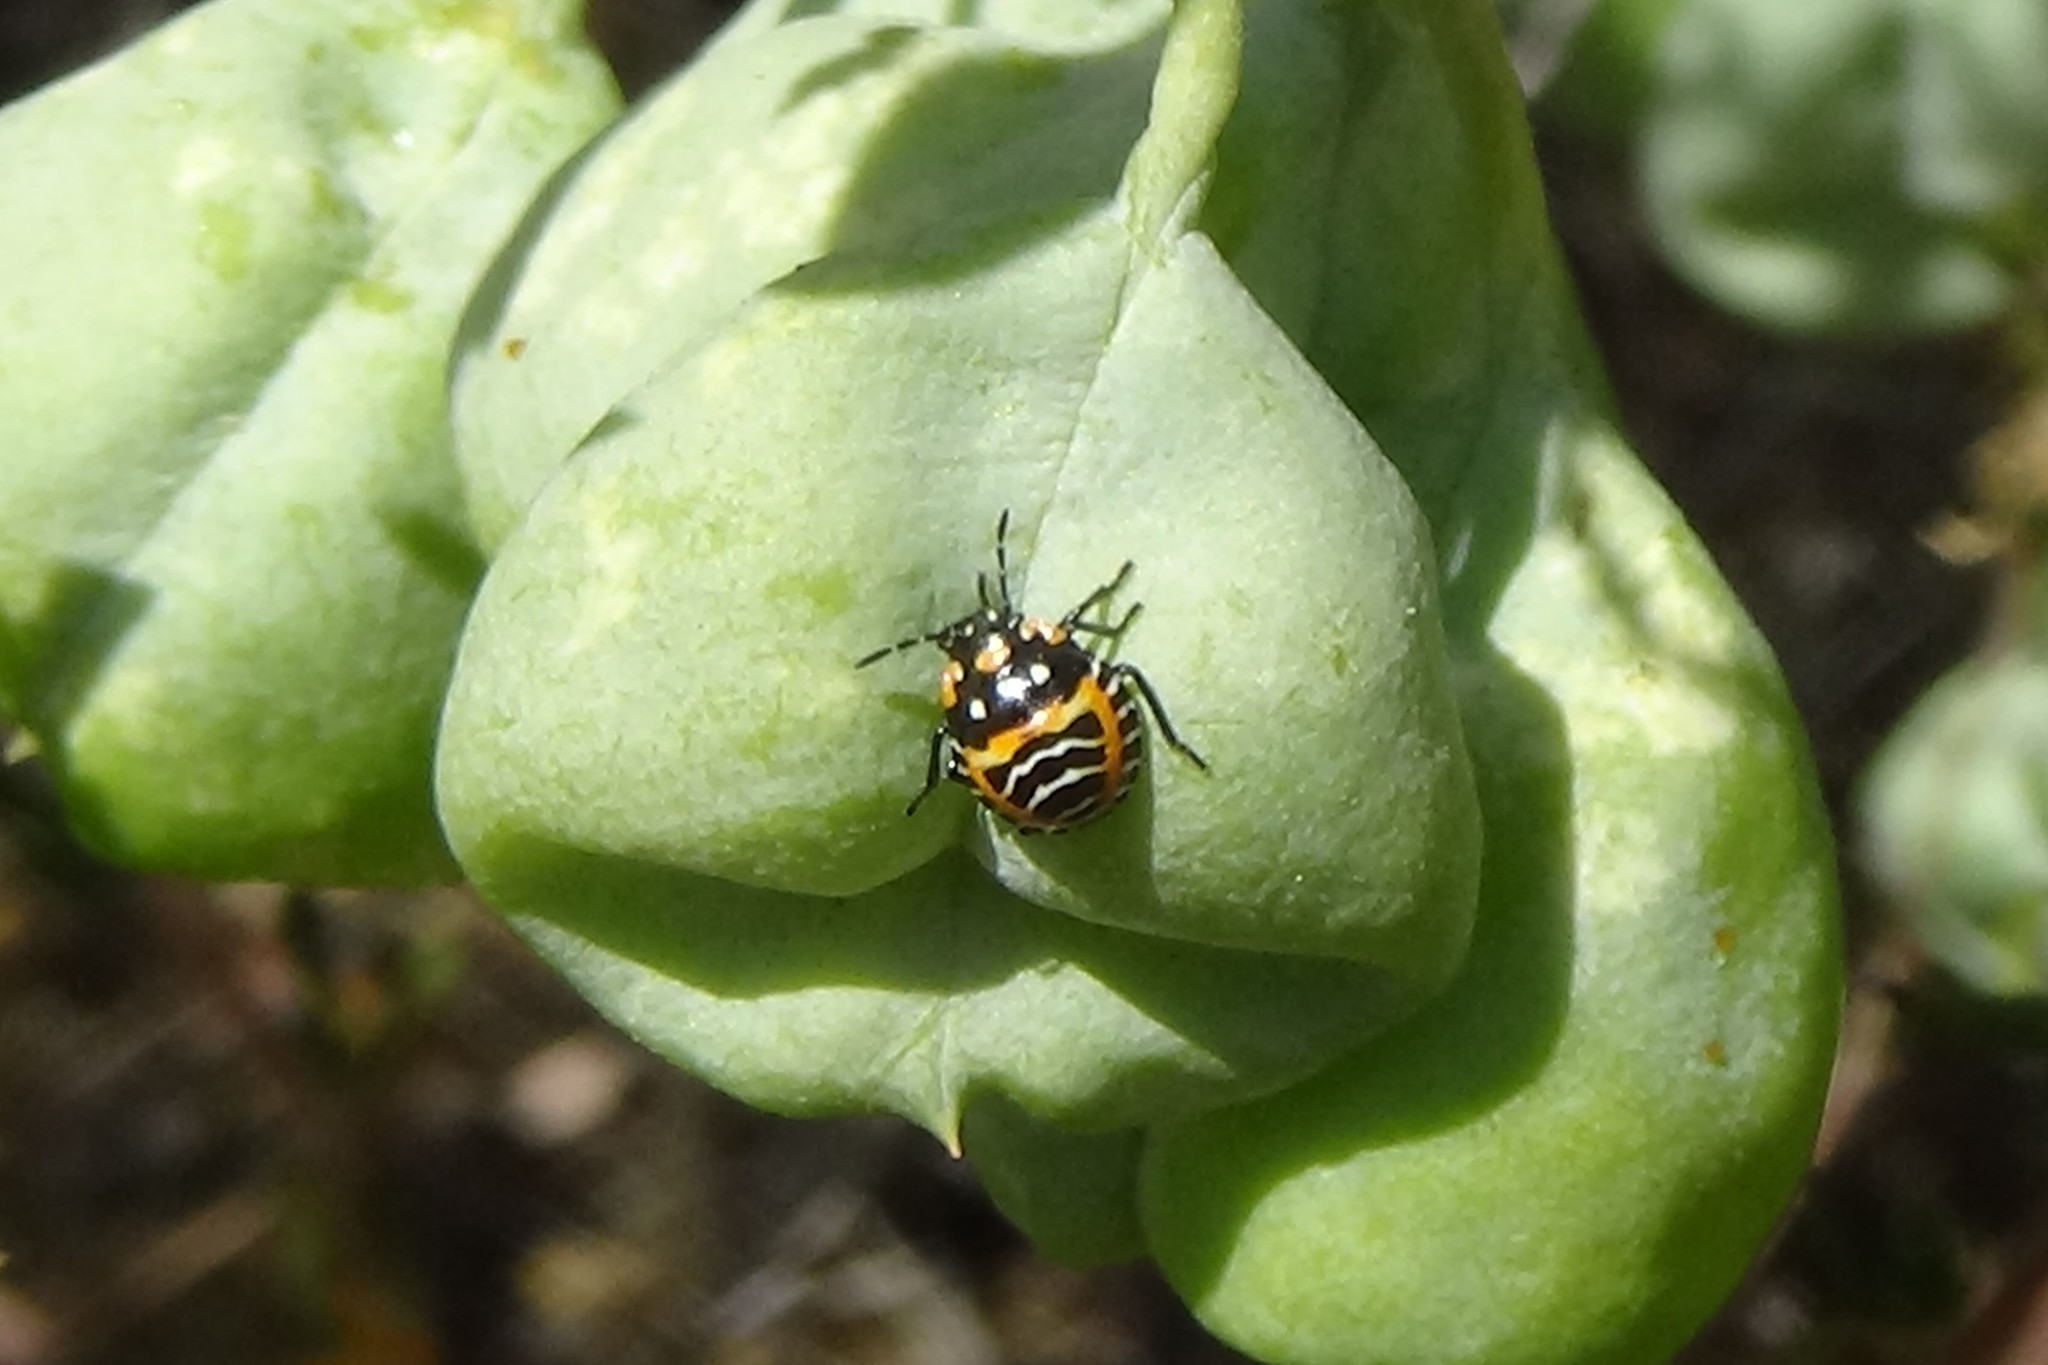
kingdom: Animalia
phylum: Arthropoda
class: Insecta
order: Hemiptera
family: Pentatomidae
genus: Murgantia
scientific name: Murgantia histrionica
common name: Harlequin bug
